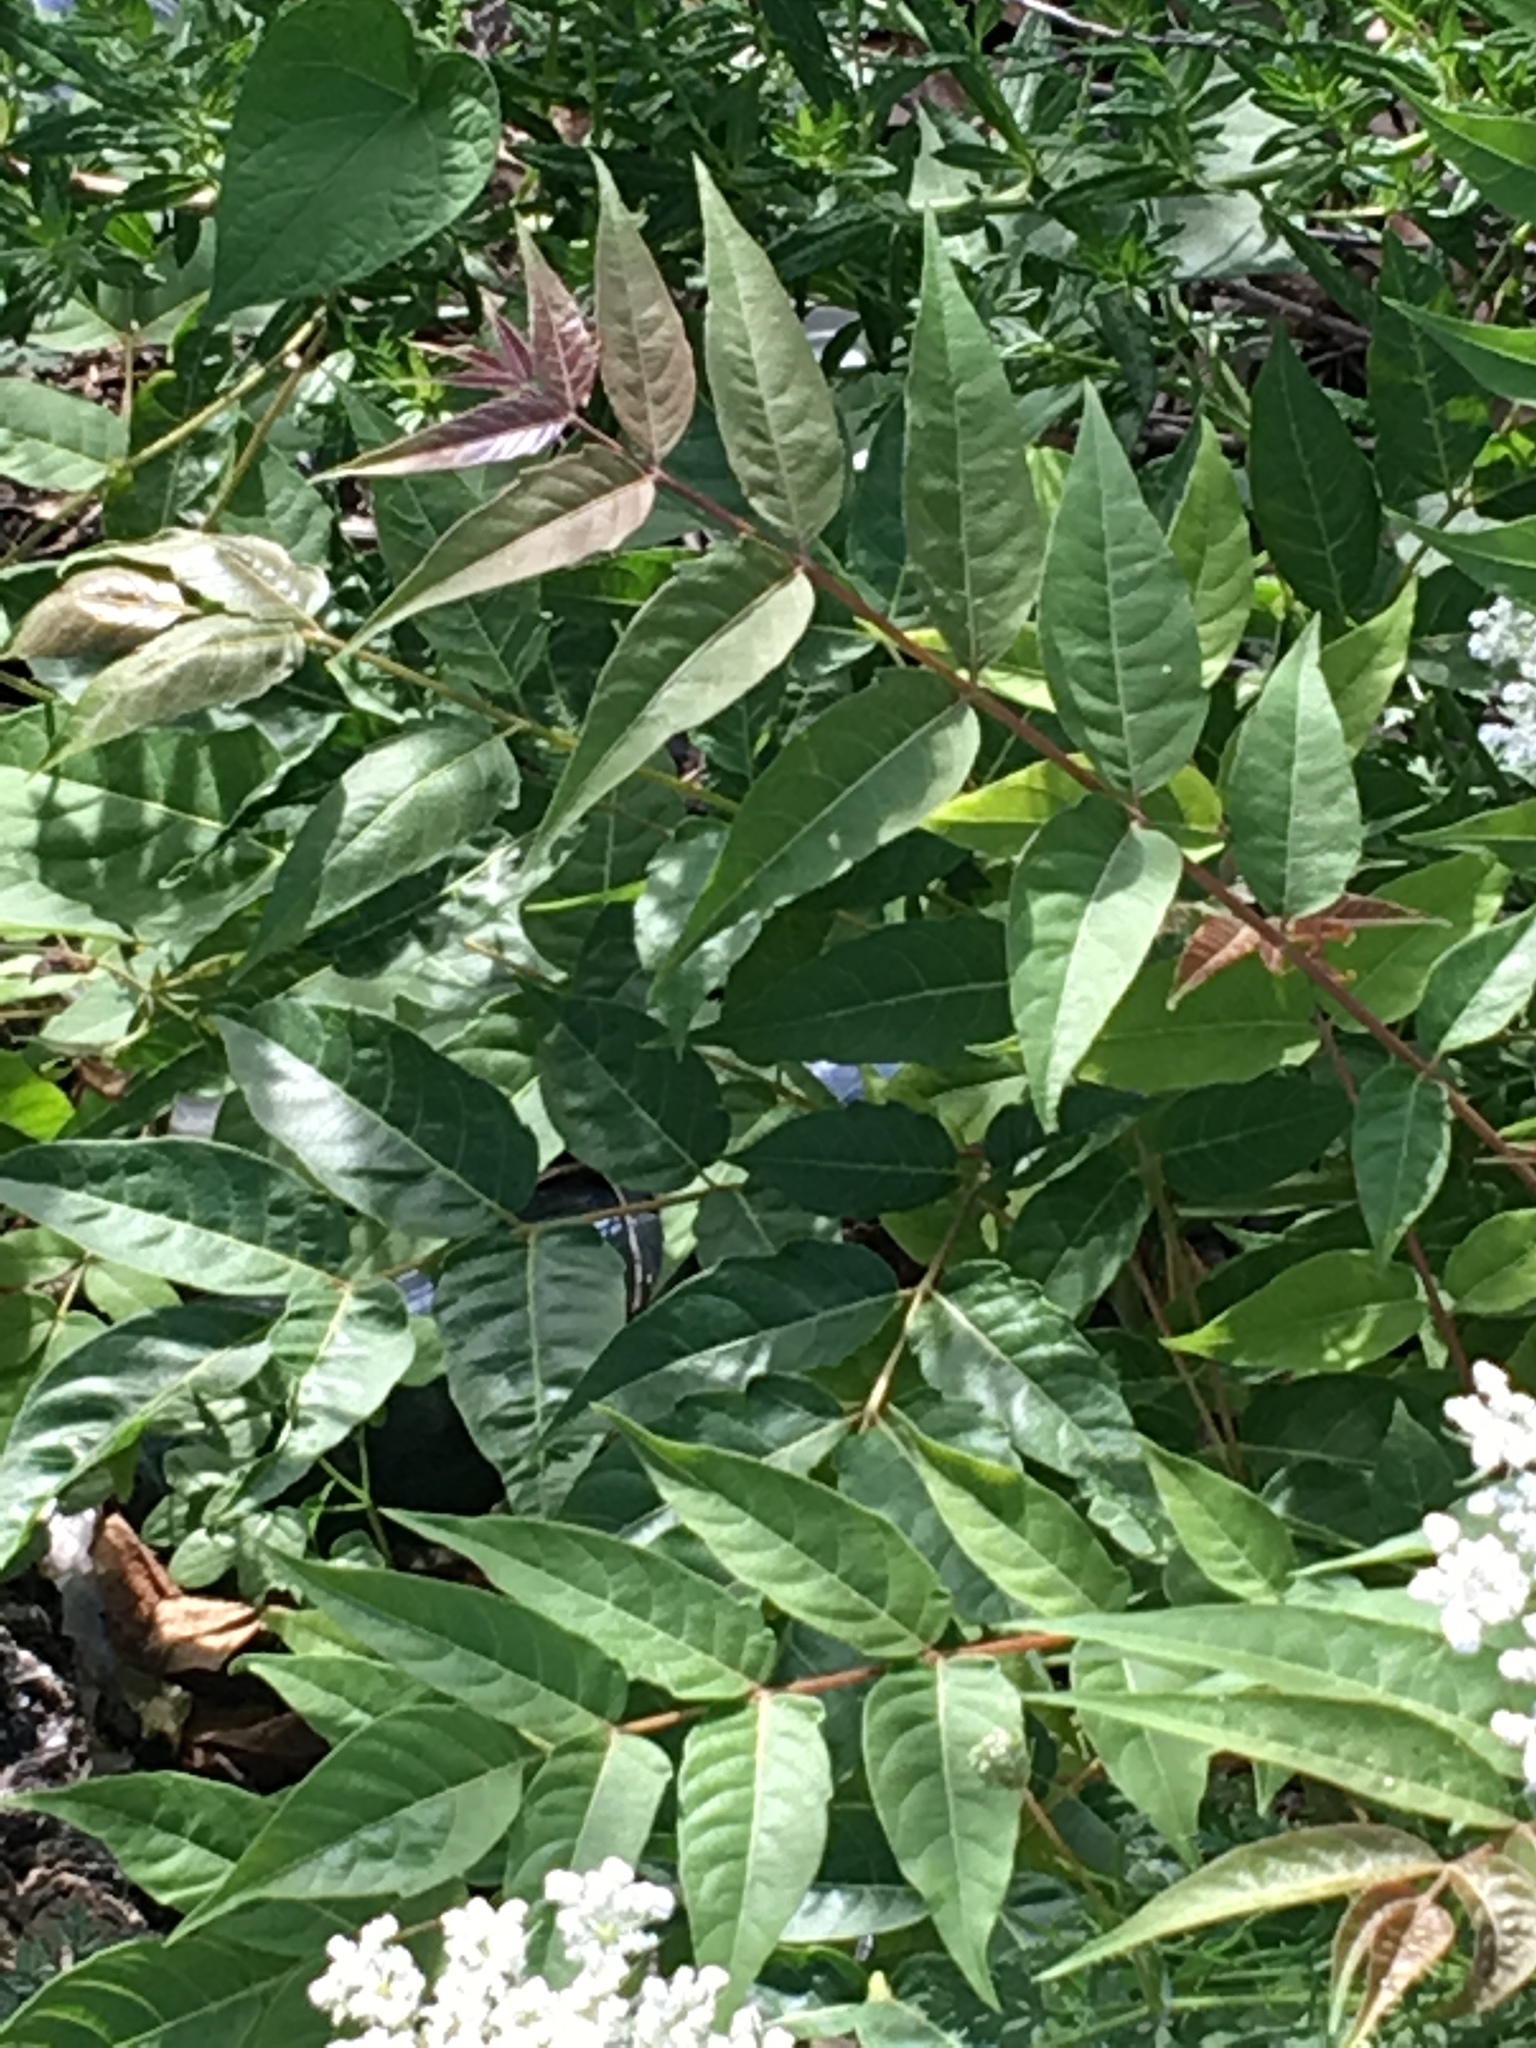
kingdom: Plantae
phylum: Tracheophyta
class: Magnoliopsida
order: Sapindales
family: Simaroubaceae
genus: Ailanthus
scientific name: Ailanthus altissima
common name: Tree-of-heaven
